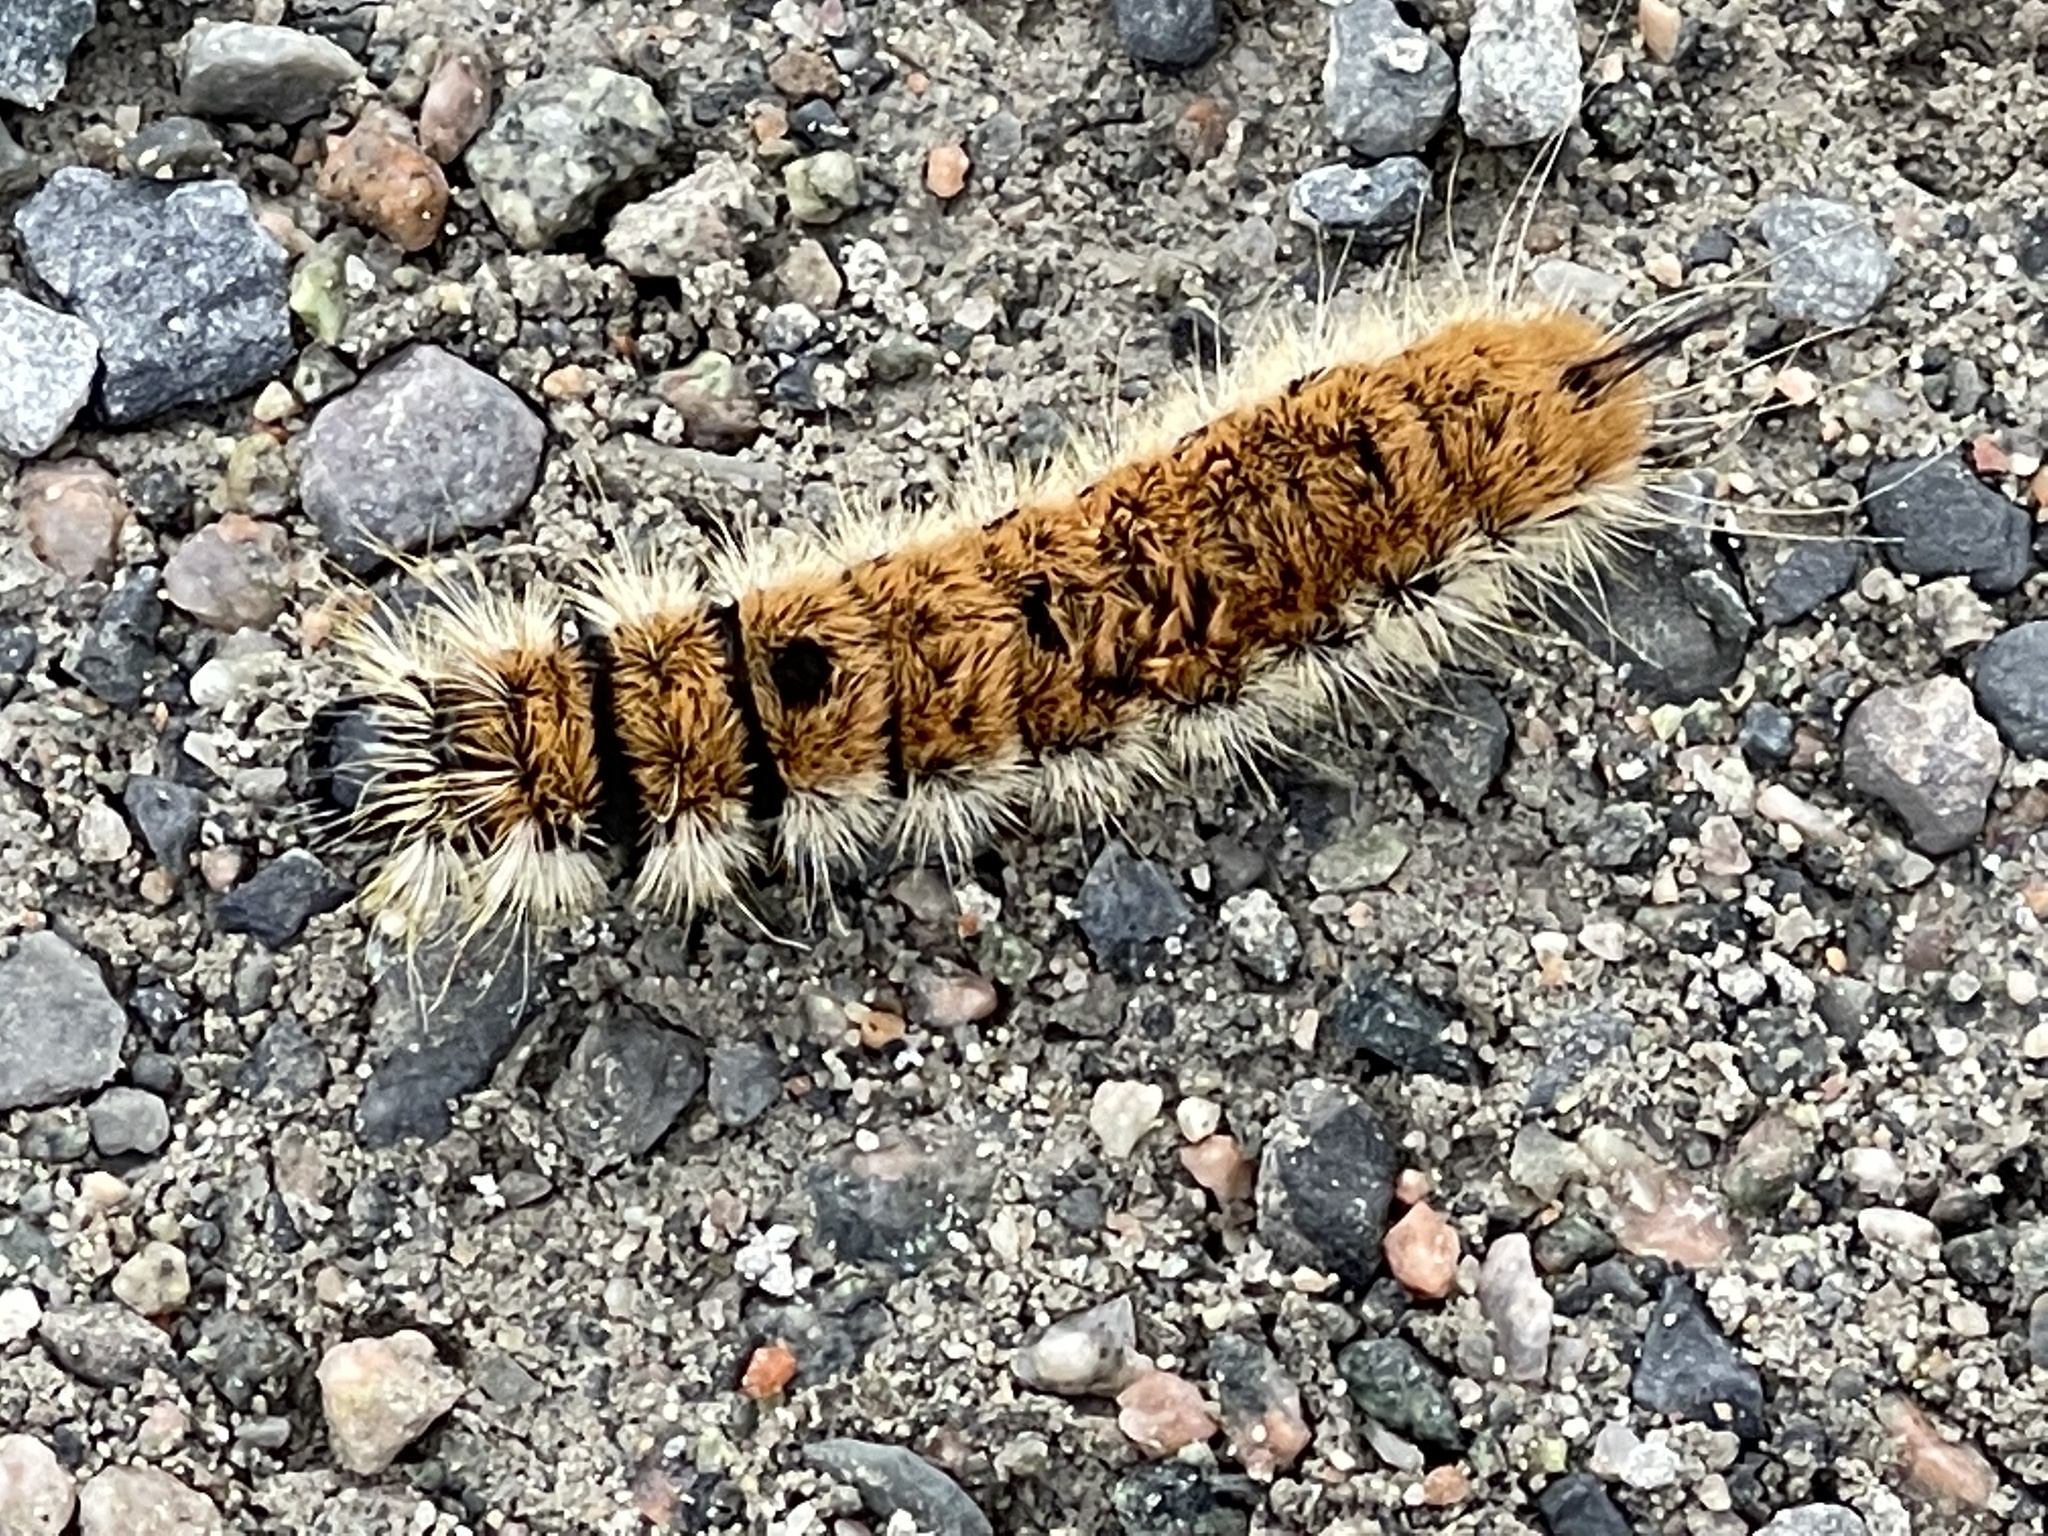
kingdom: Animalia
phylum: Arthropoda
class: Insecta
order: Lepidoptera
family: Noctuidae
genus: Acronicta
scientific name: Acronicta insita
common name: Large gray dagger
